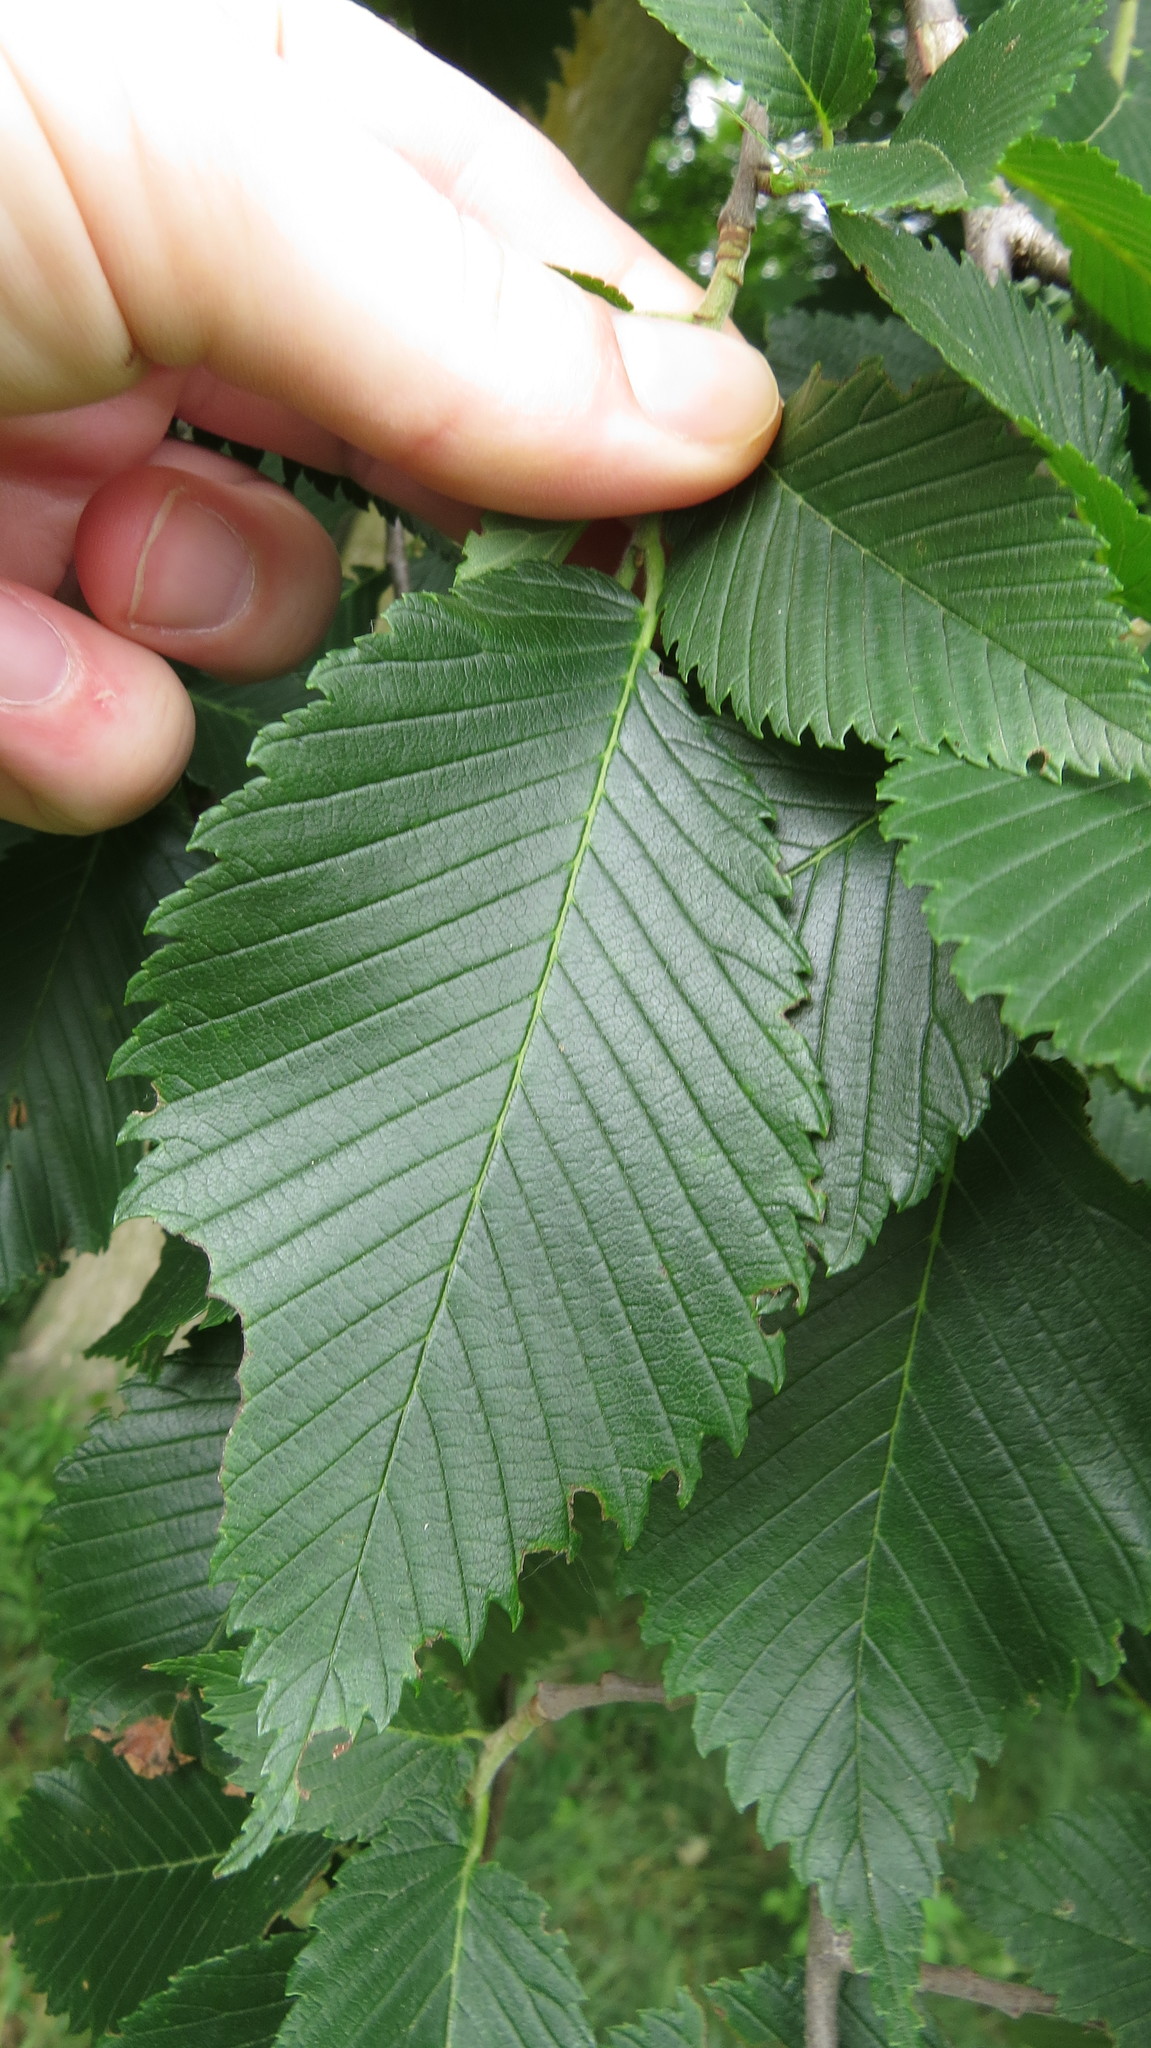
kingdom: Plantae
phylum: Tracheophyta
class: Magnoliopsida
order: Rosales
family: Ulmaceae
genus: Ulmus
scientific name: Ulmus americana
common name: American elm
